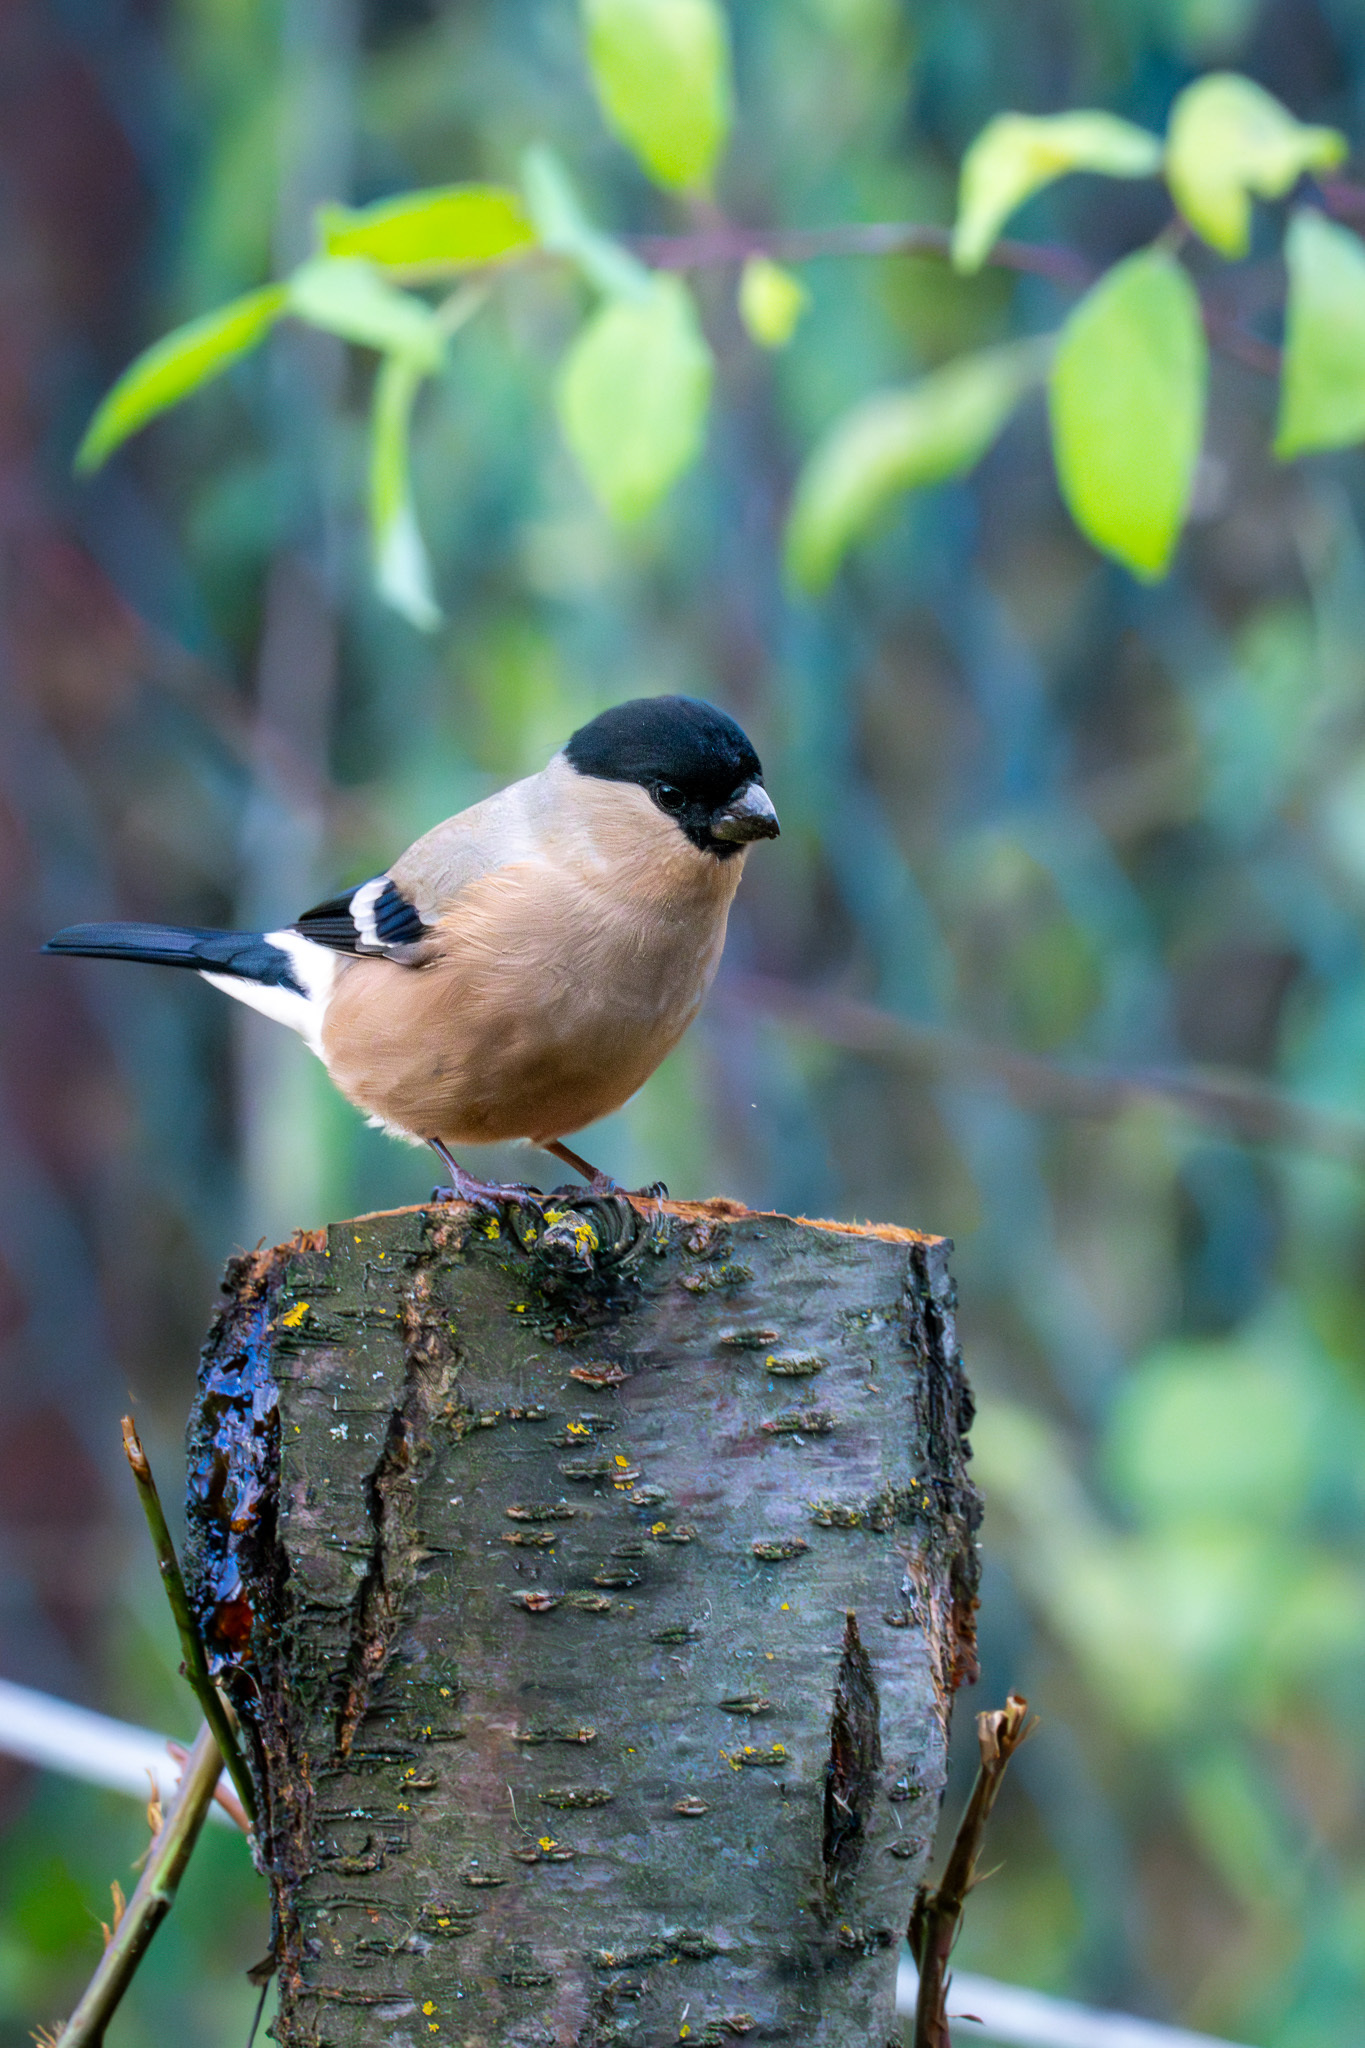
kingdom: Animalia
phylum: Chordata
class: Aves
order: Passeriformes
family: Fringillidae
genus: Pyrrhula
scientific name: Pyrrhula pyrrhula
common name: Eurasian bullfinch
